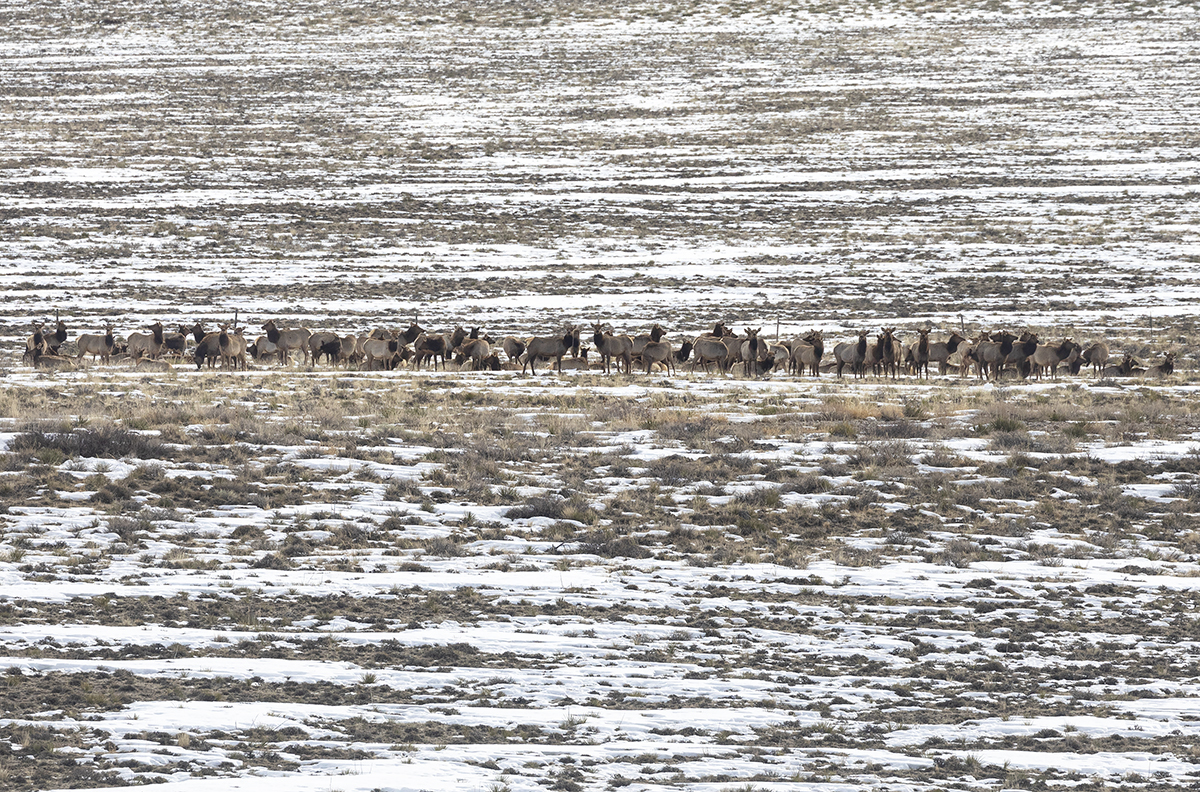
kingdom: Animalia
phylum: Chordata
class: Mammalia
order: Artiodactyla
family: Cervidae
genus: Cervus
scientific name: Cervus elaphus
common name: Red deer
